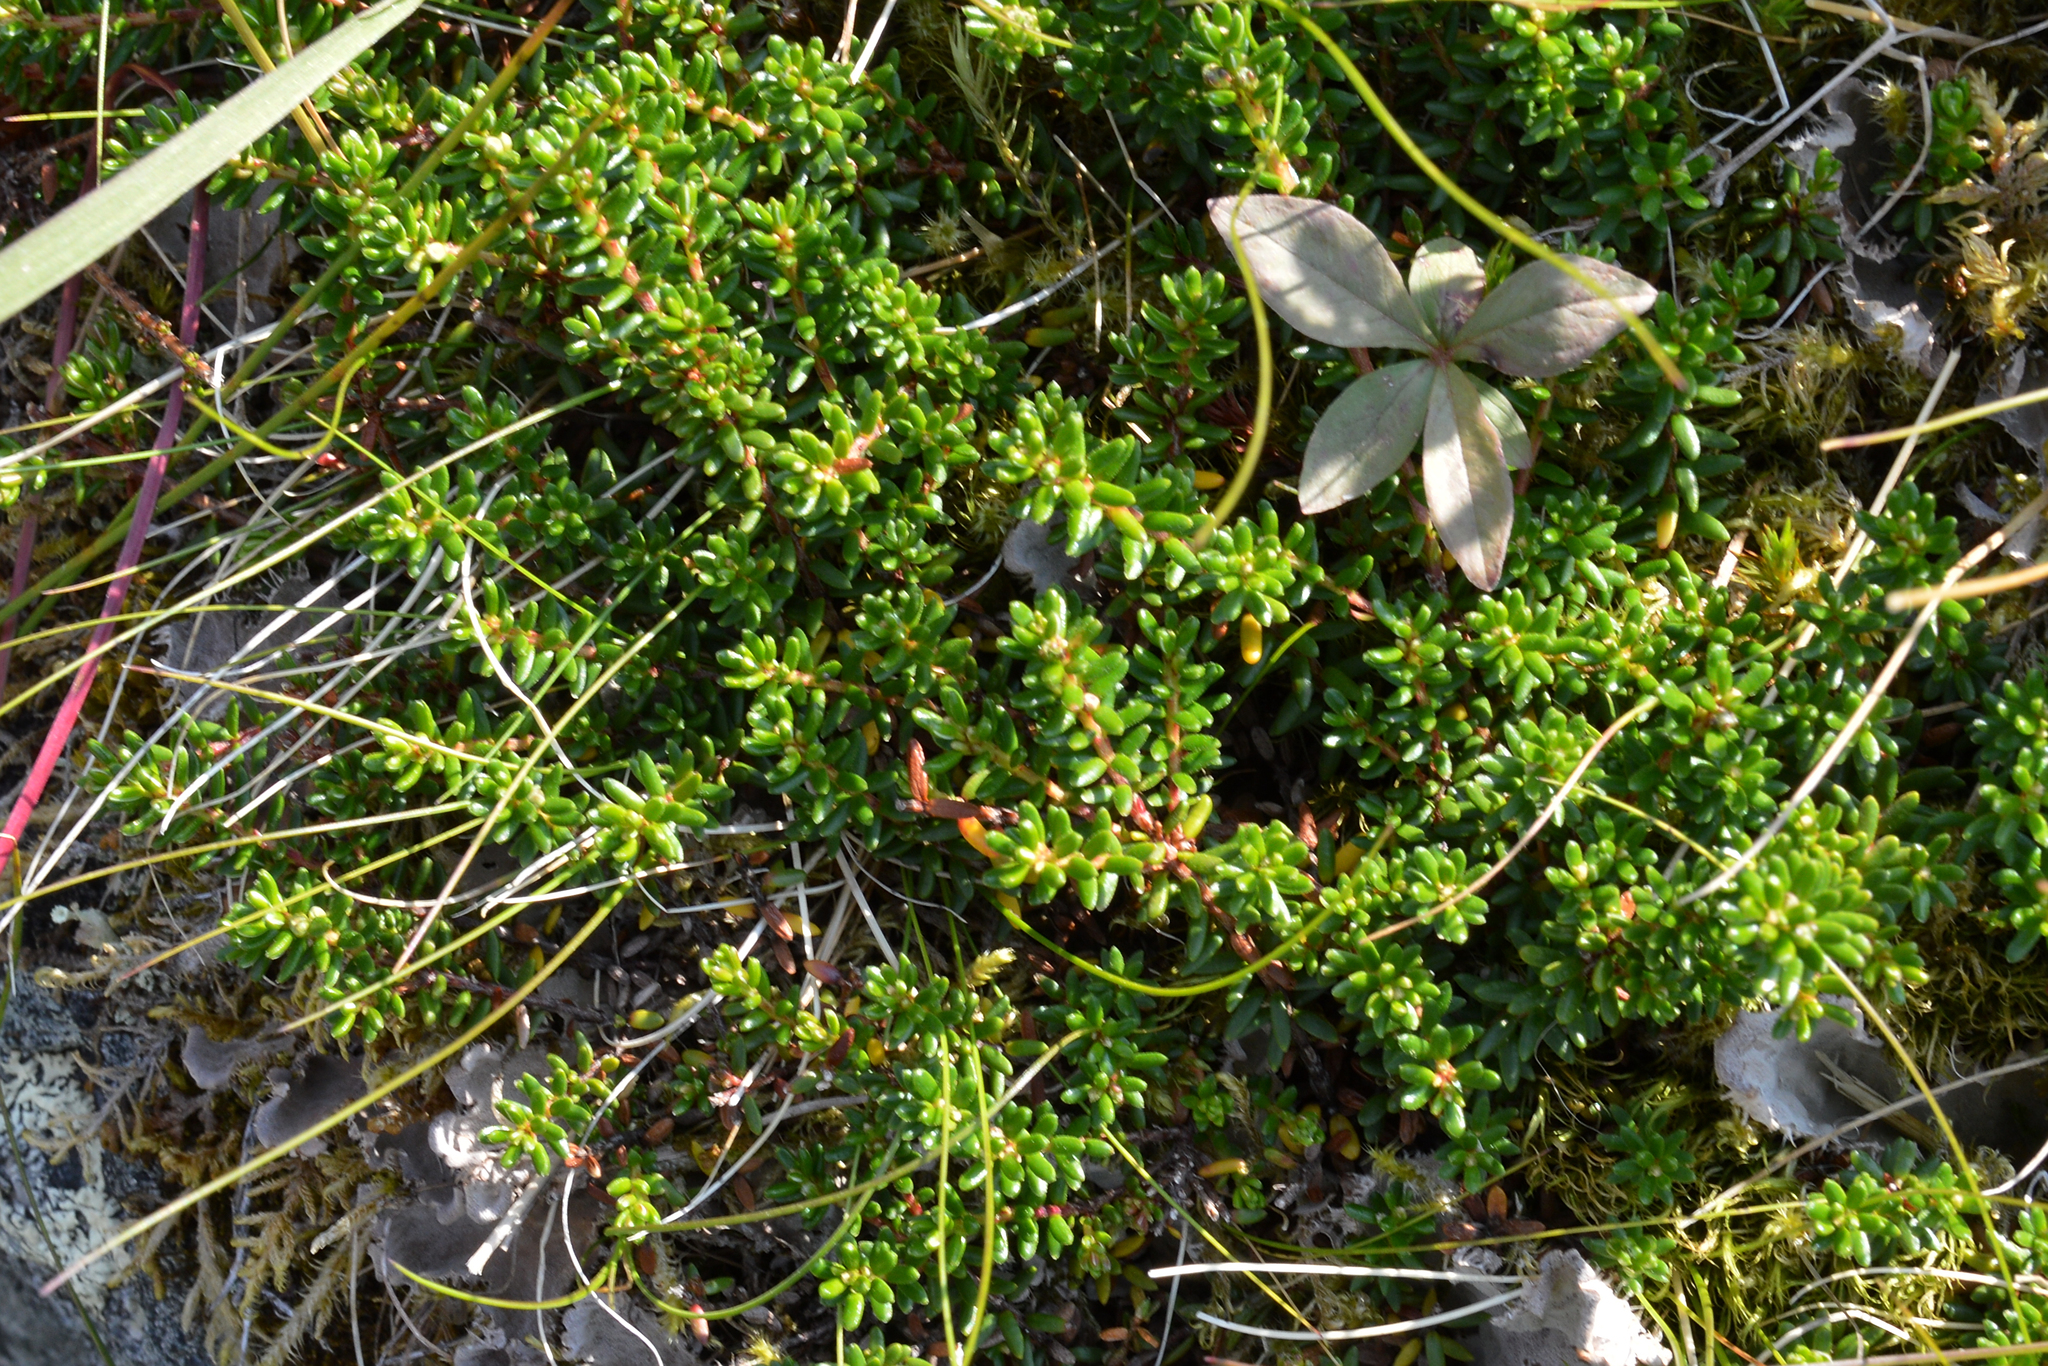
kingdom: Plantae
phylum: Tracheophyta
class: Magnoliopsida
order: Ericales
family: Ericaceae
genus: Empetrum
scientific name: Empetrum nigrum
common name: Black crowberry
